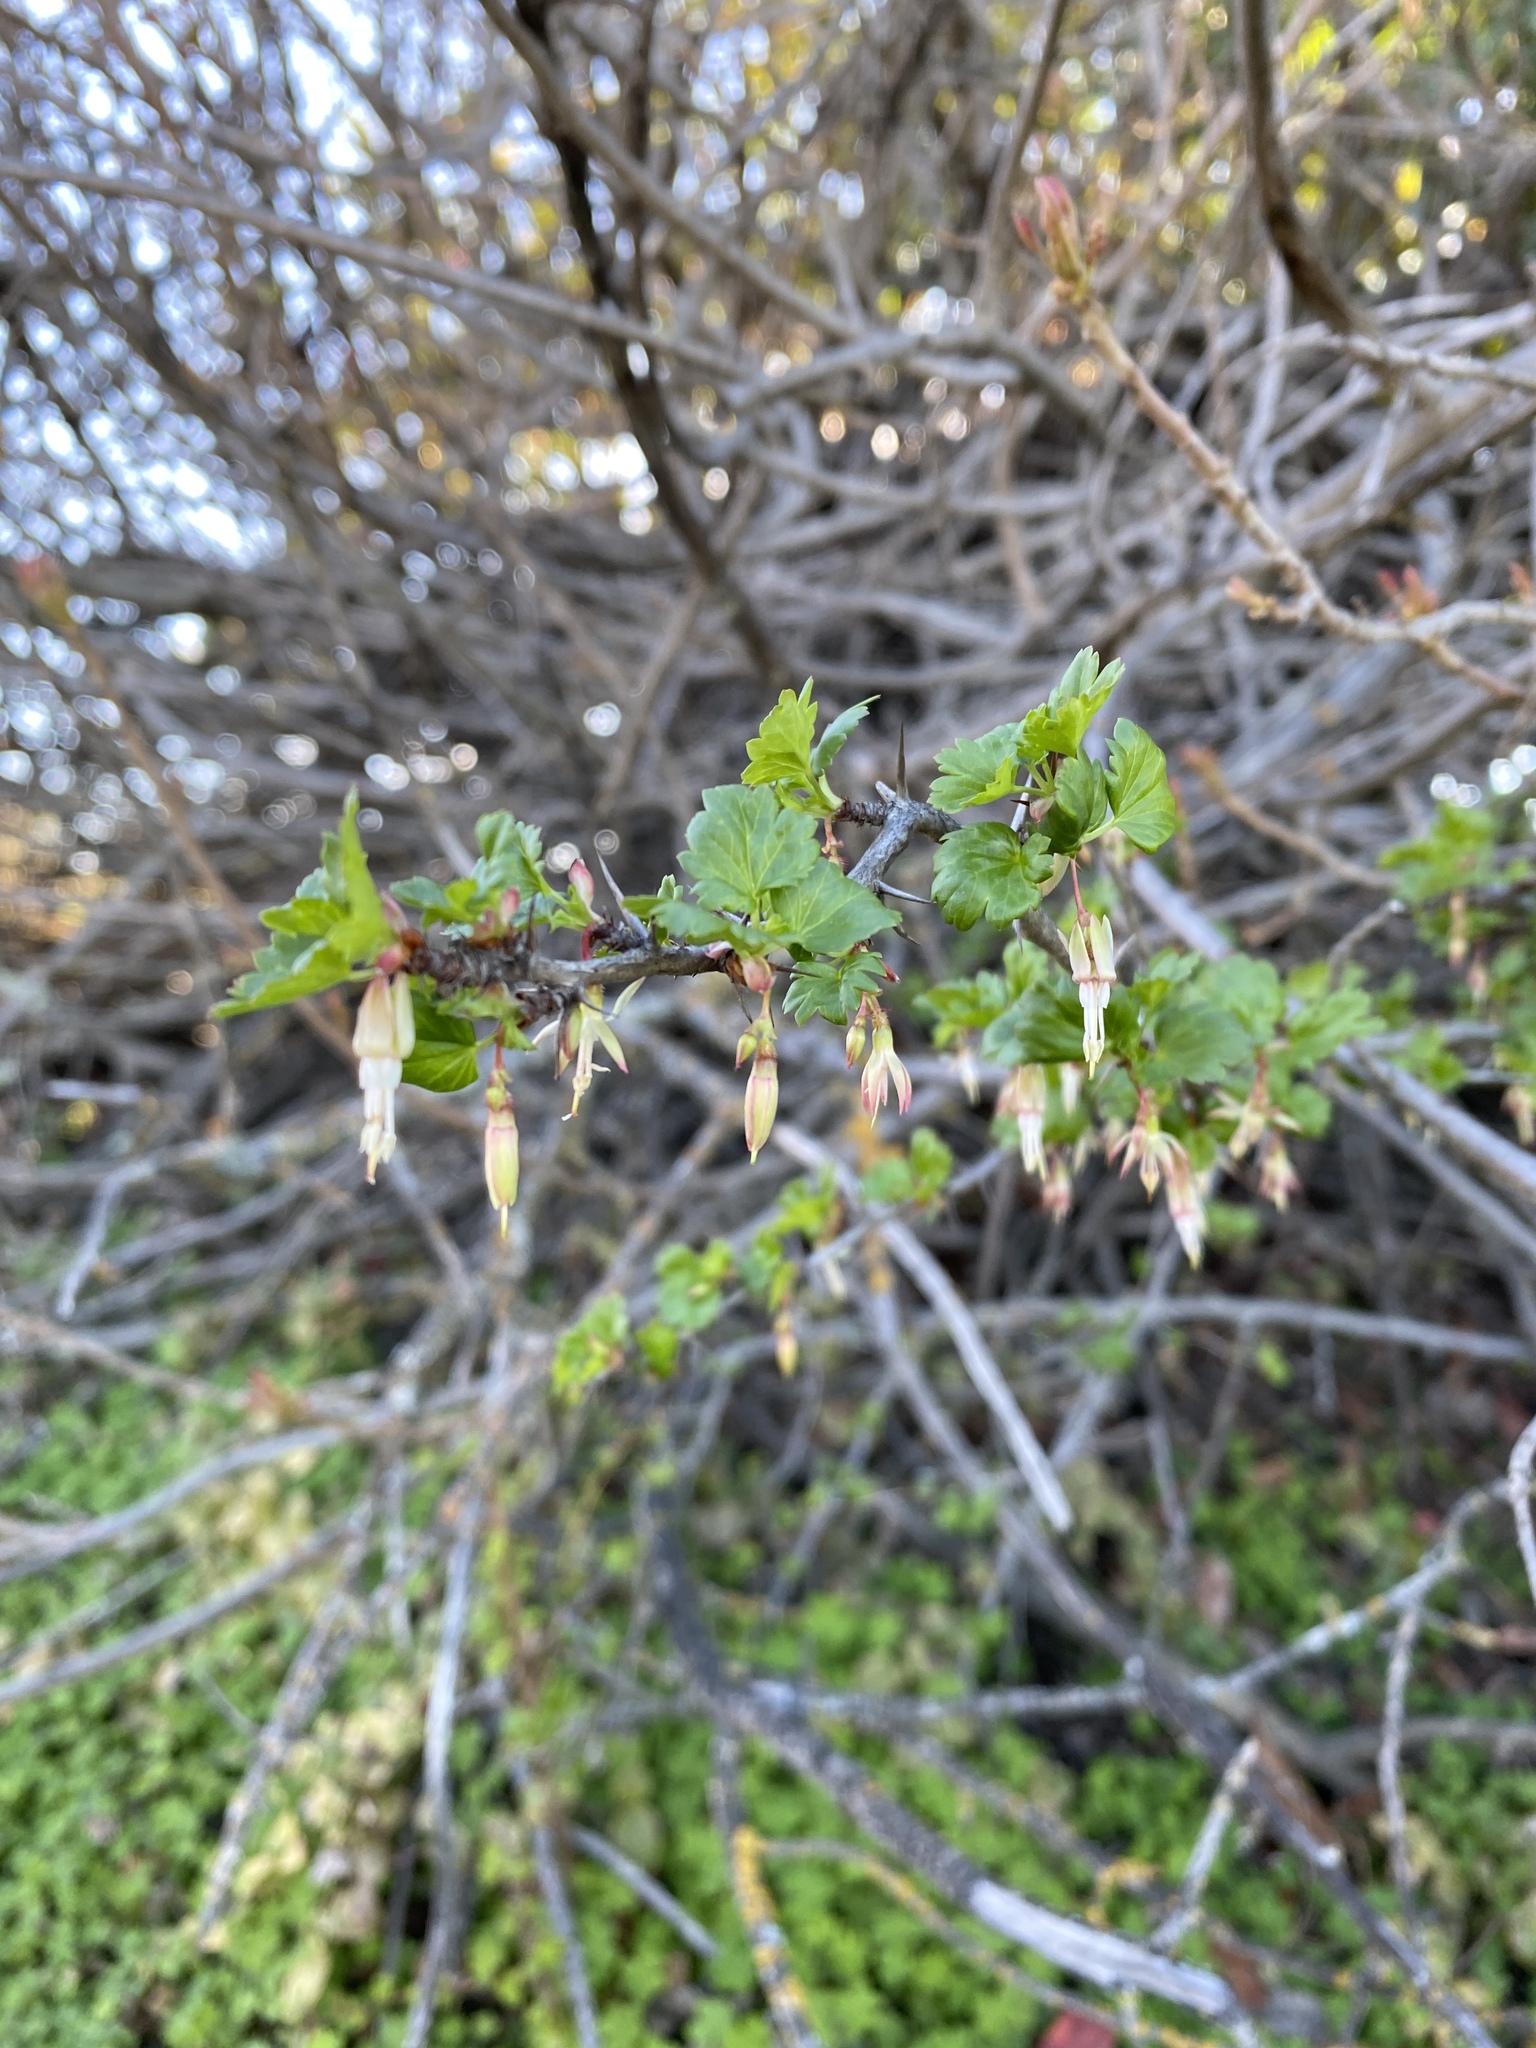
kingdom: Plantae
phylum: Tracheophyta
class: Magnoliopsida
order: Saxifragales
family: Grossulariaceae
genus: Ribes
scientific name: Ribes californicum
